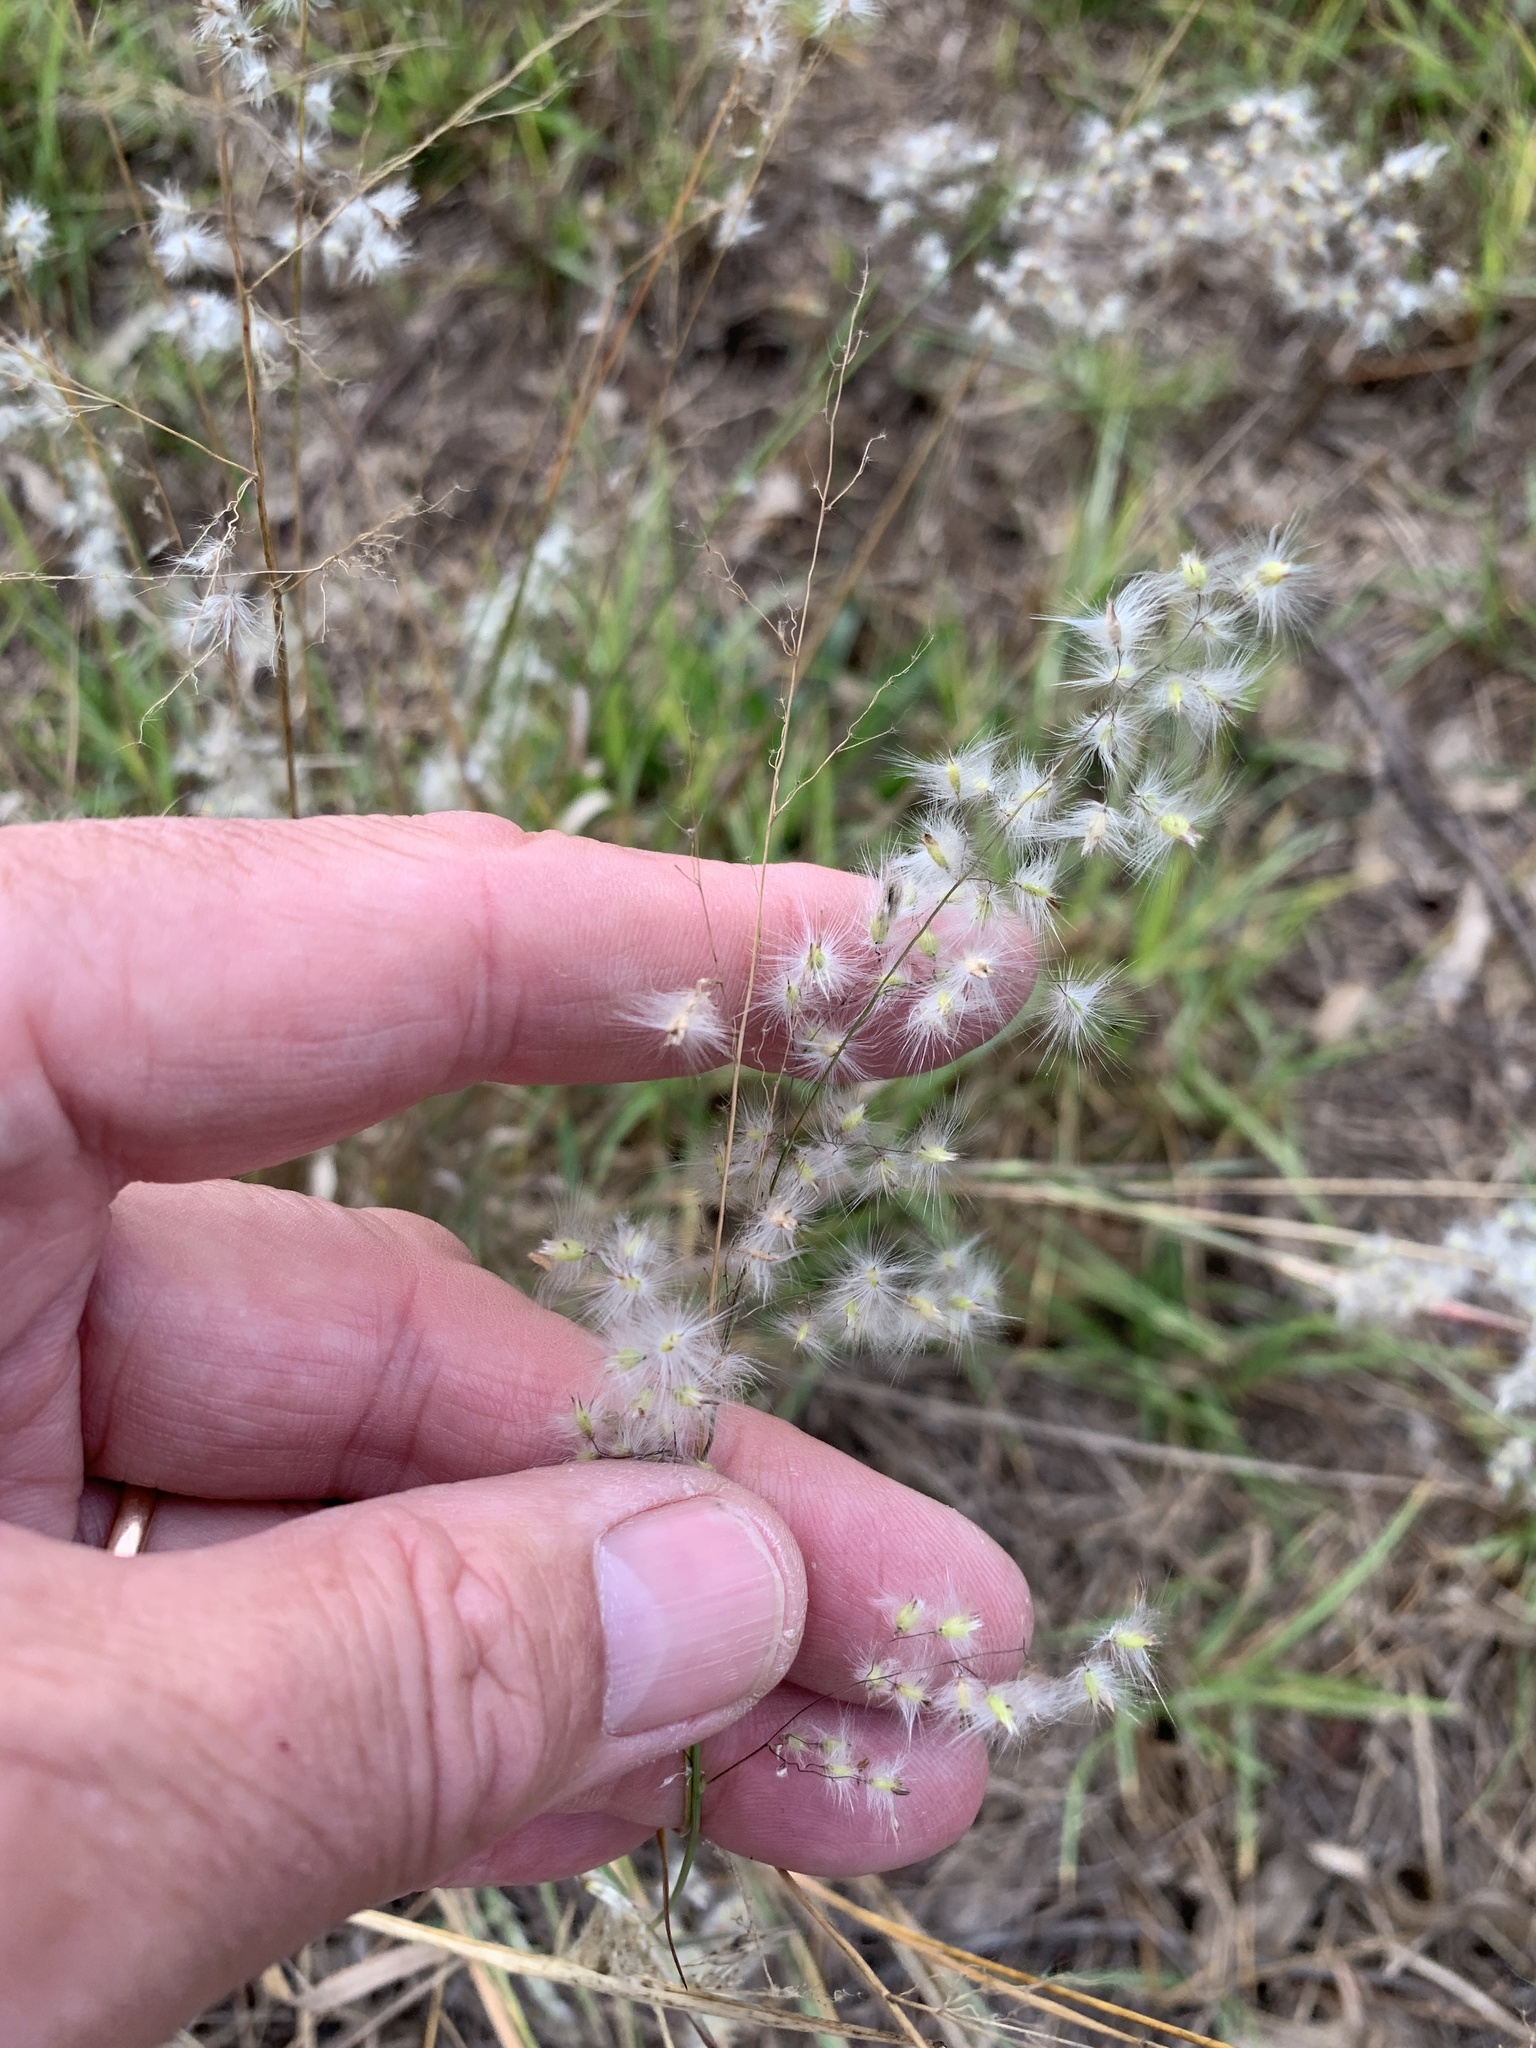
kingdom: Plantae
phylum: Tracheophyta
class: Liliopsida
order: Poales
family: Poaceae
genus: Melinis
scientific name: Melinis repens
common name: Rose natal grass
